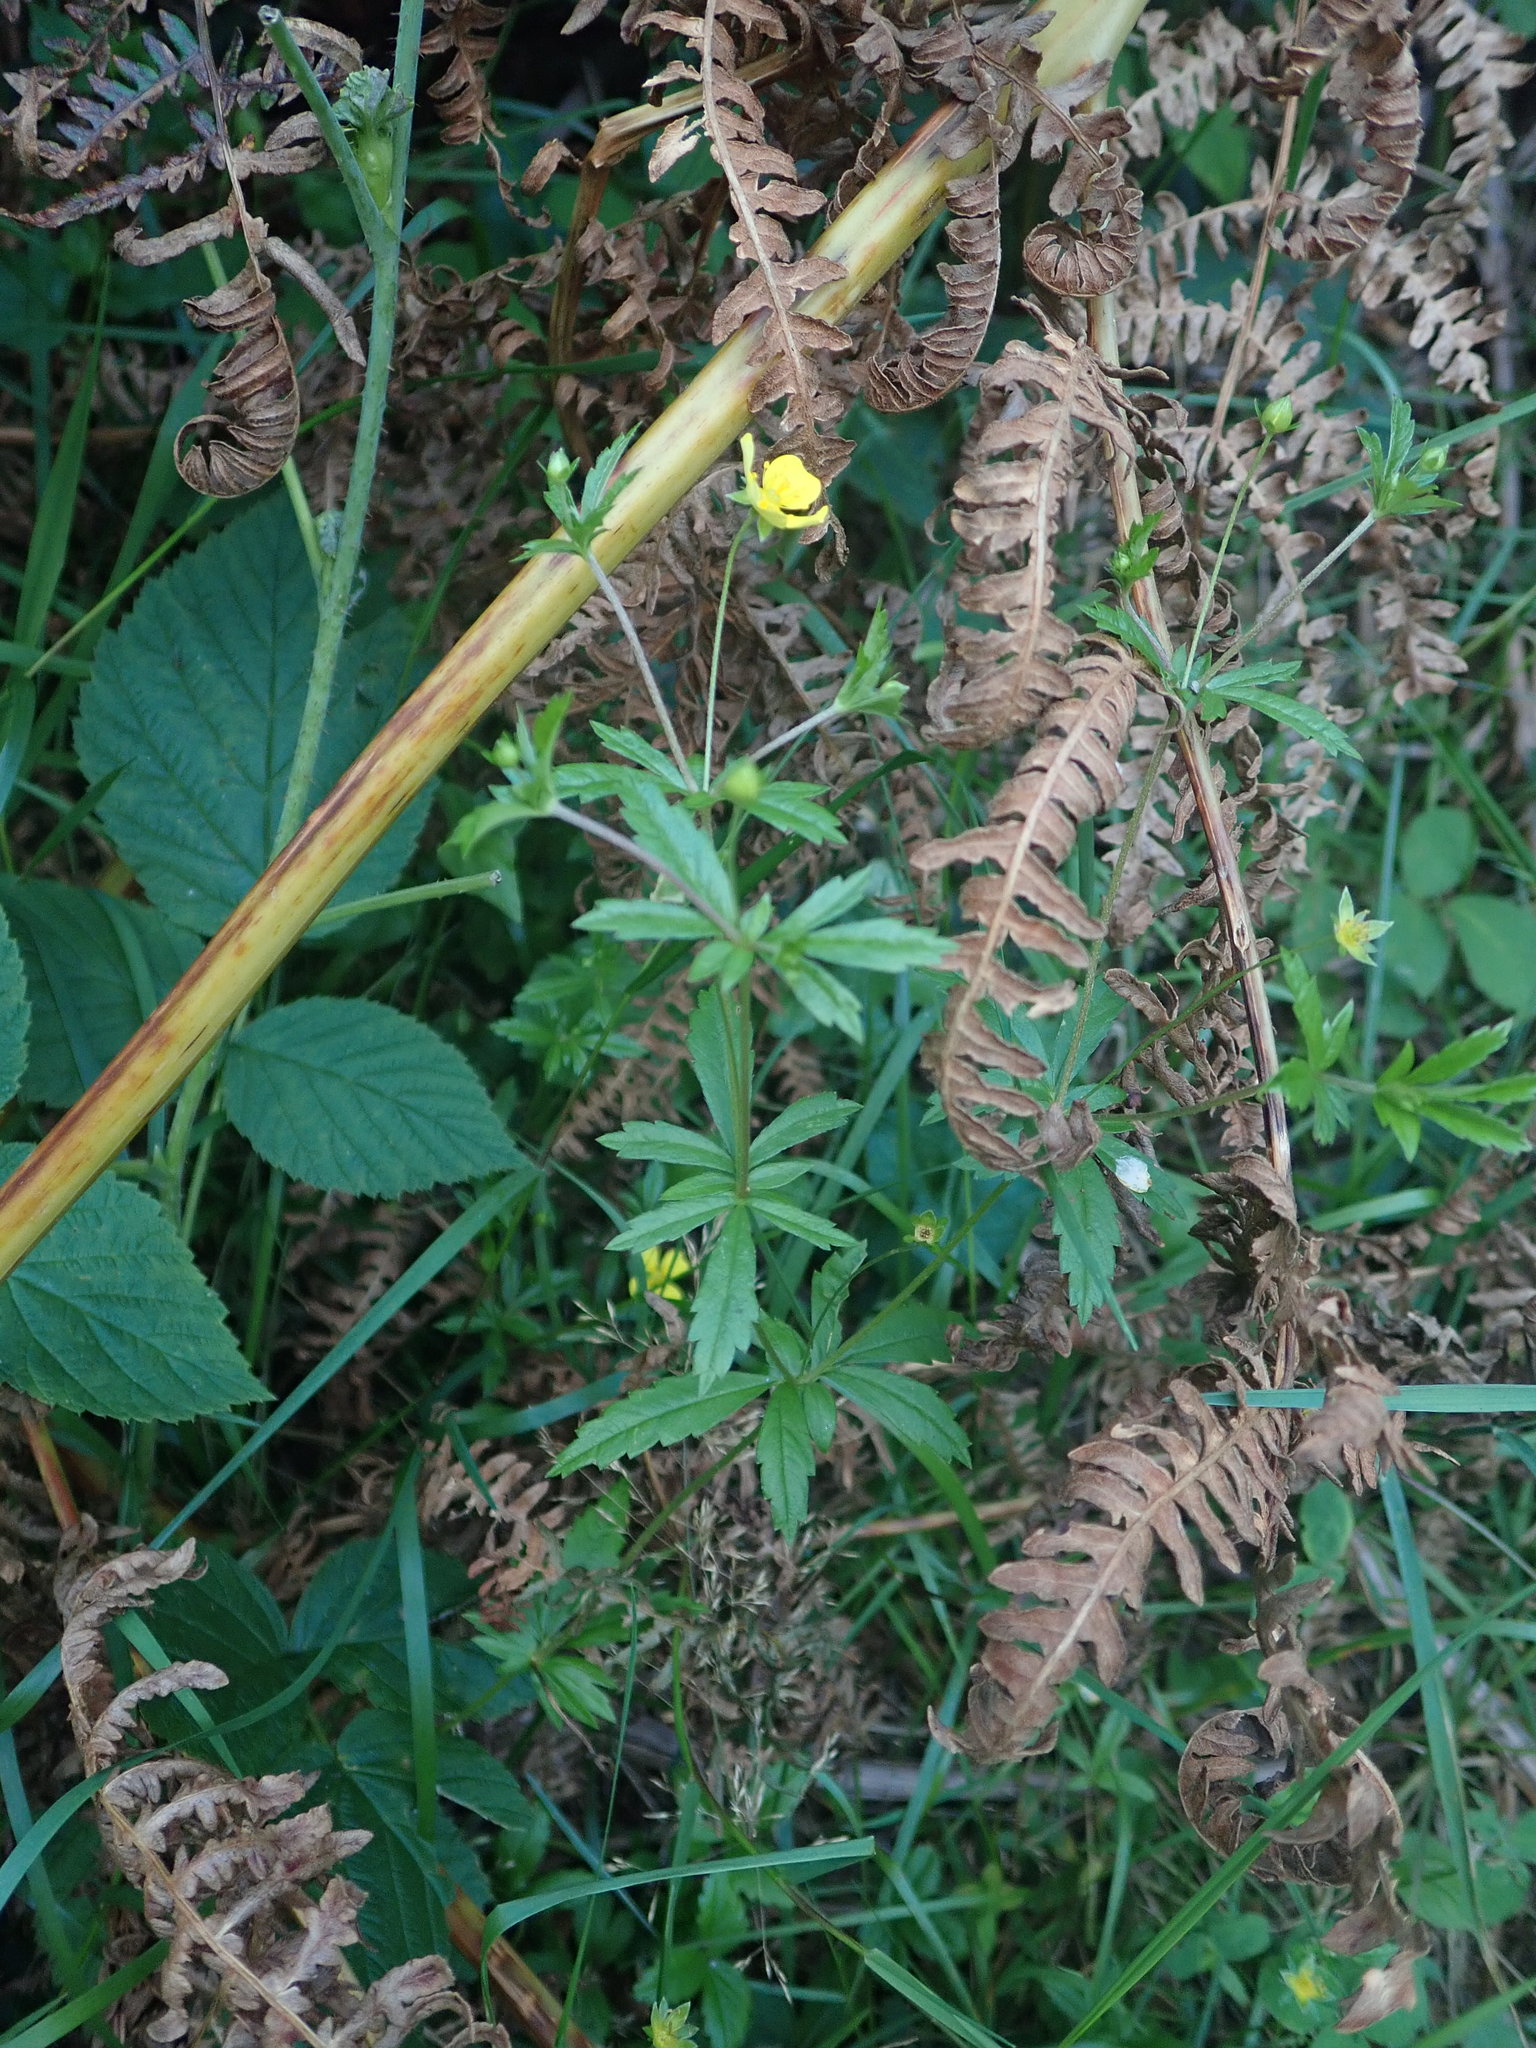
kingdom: Plantae
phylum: Tracheophyta
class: Magnoliopsida
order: Rosales
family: Rosaceae
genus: Potentilla
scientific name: Potentilla erecta
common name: Tormentil
